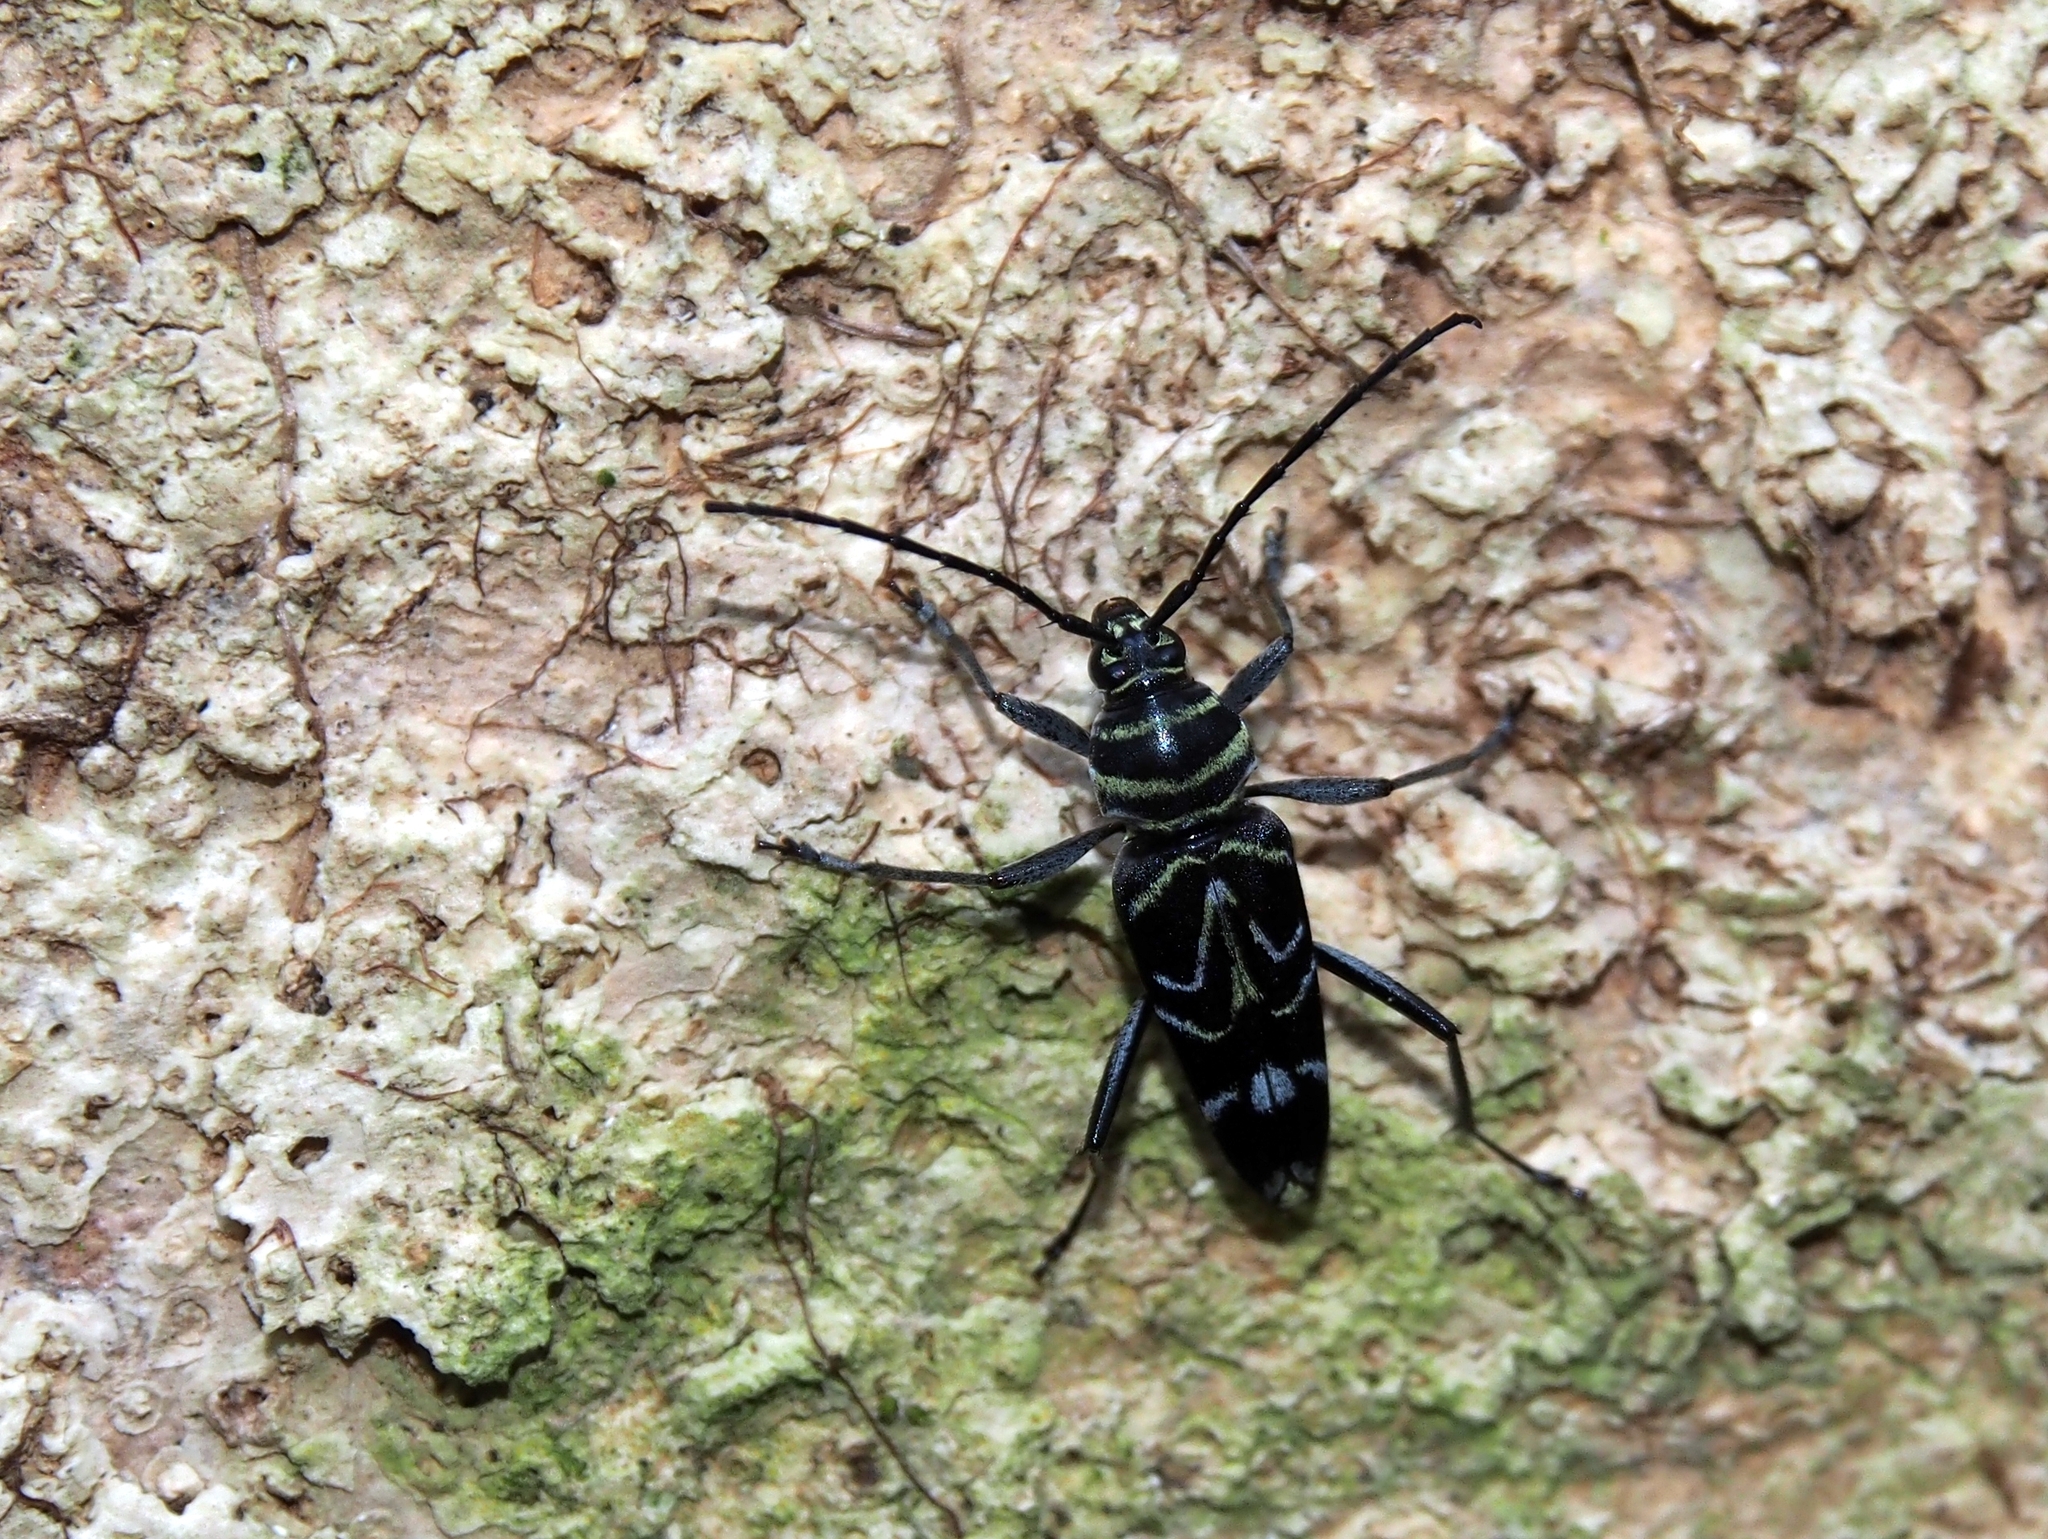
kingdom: Animalia
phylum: Arthropoda
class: Insecta
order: Coleoptera
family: Cerambycidae
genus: Megacyllene
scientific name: Megacyllene angulata
